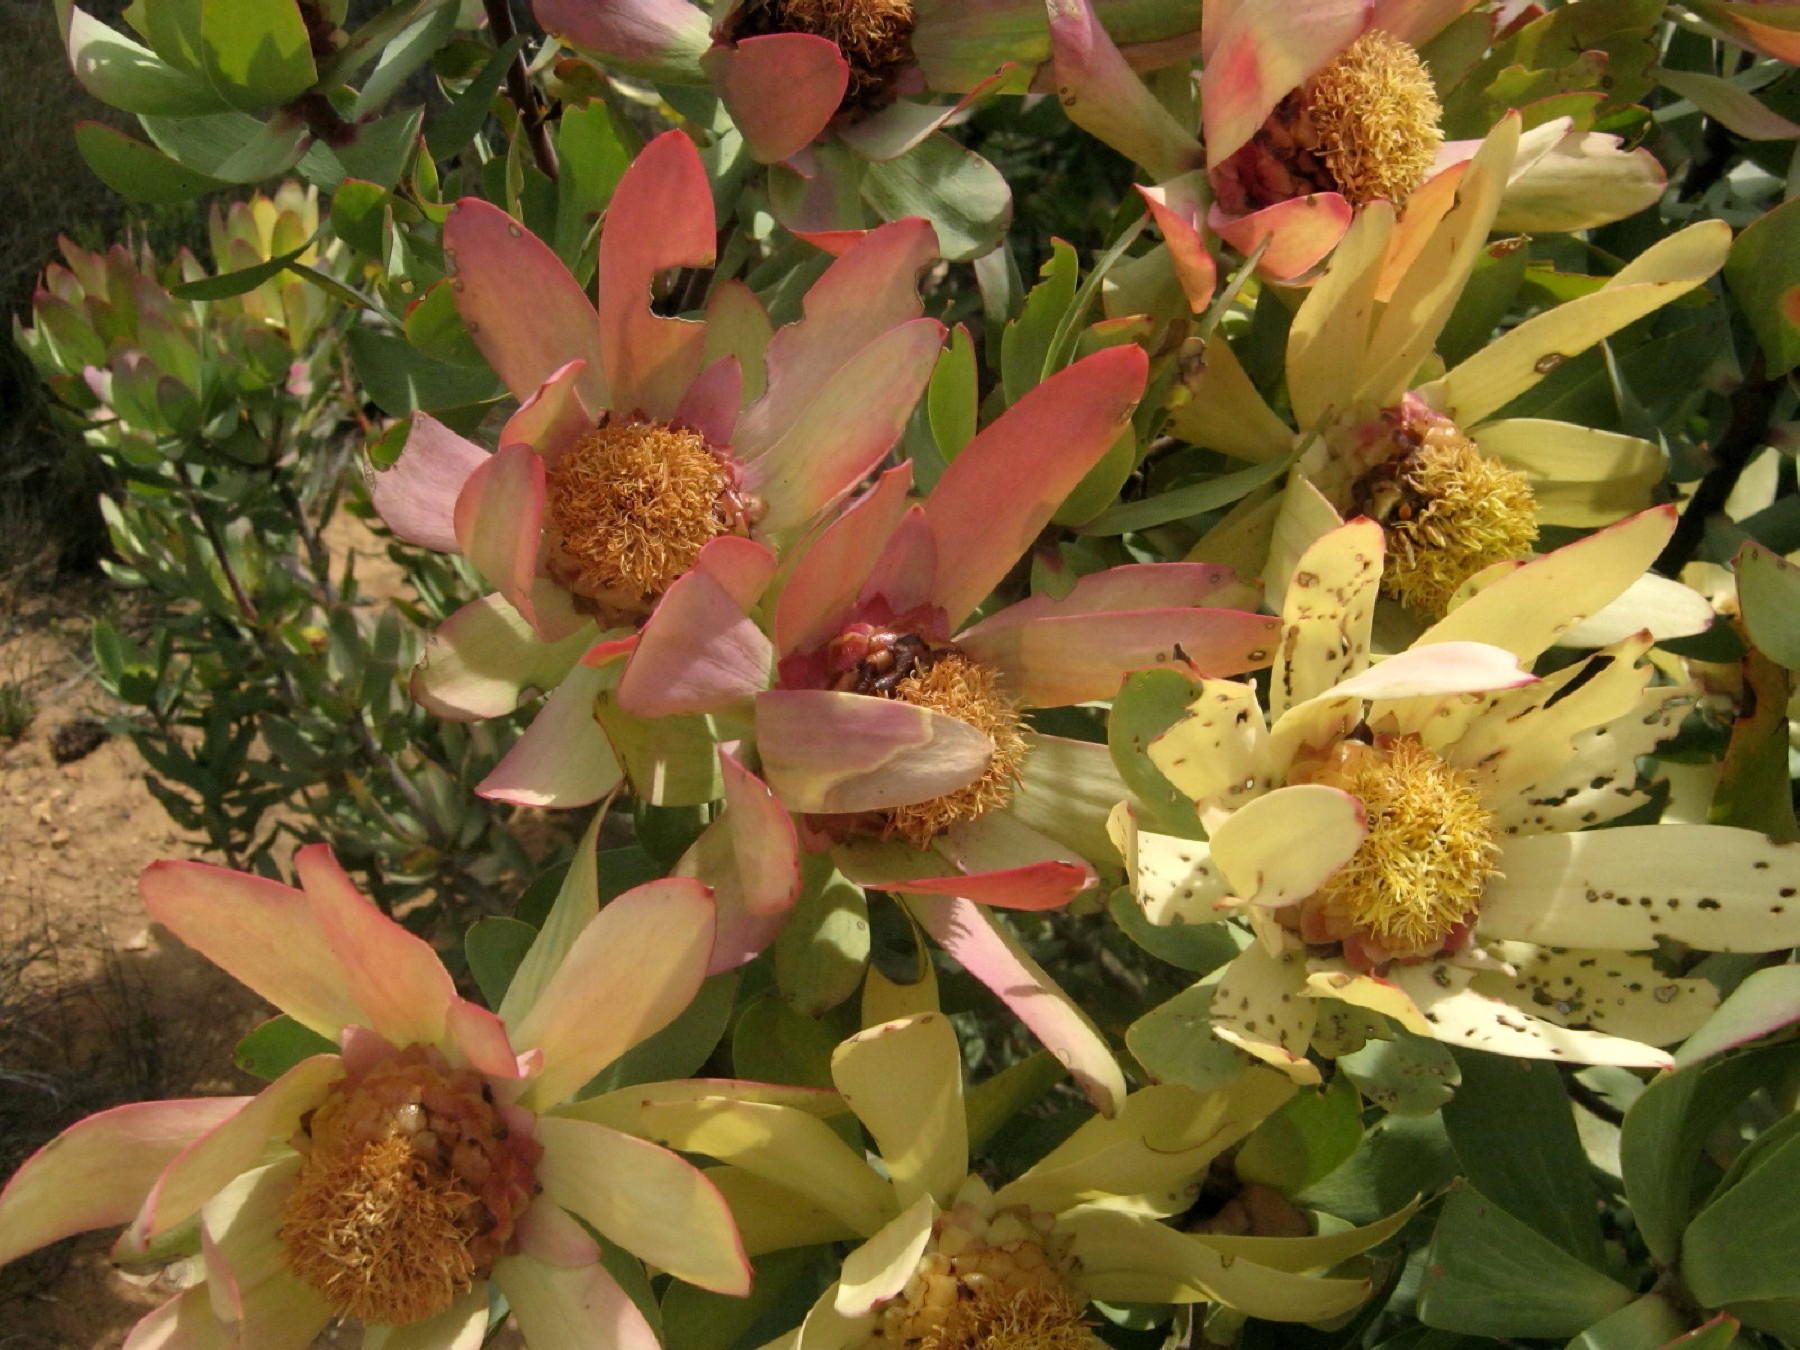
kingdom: Plantae
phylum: Tracheophyta
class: Magnoliopsida
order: Proteales
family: Proteaceae
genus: Leucadendron
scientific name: Leucadendron tinctum
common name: Spicy conebush
